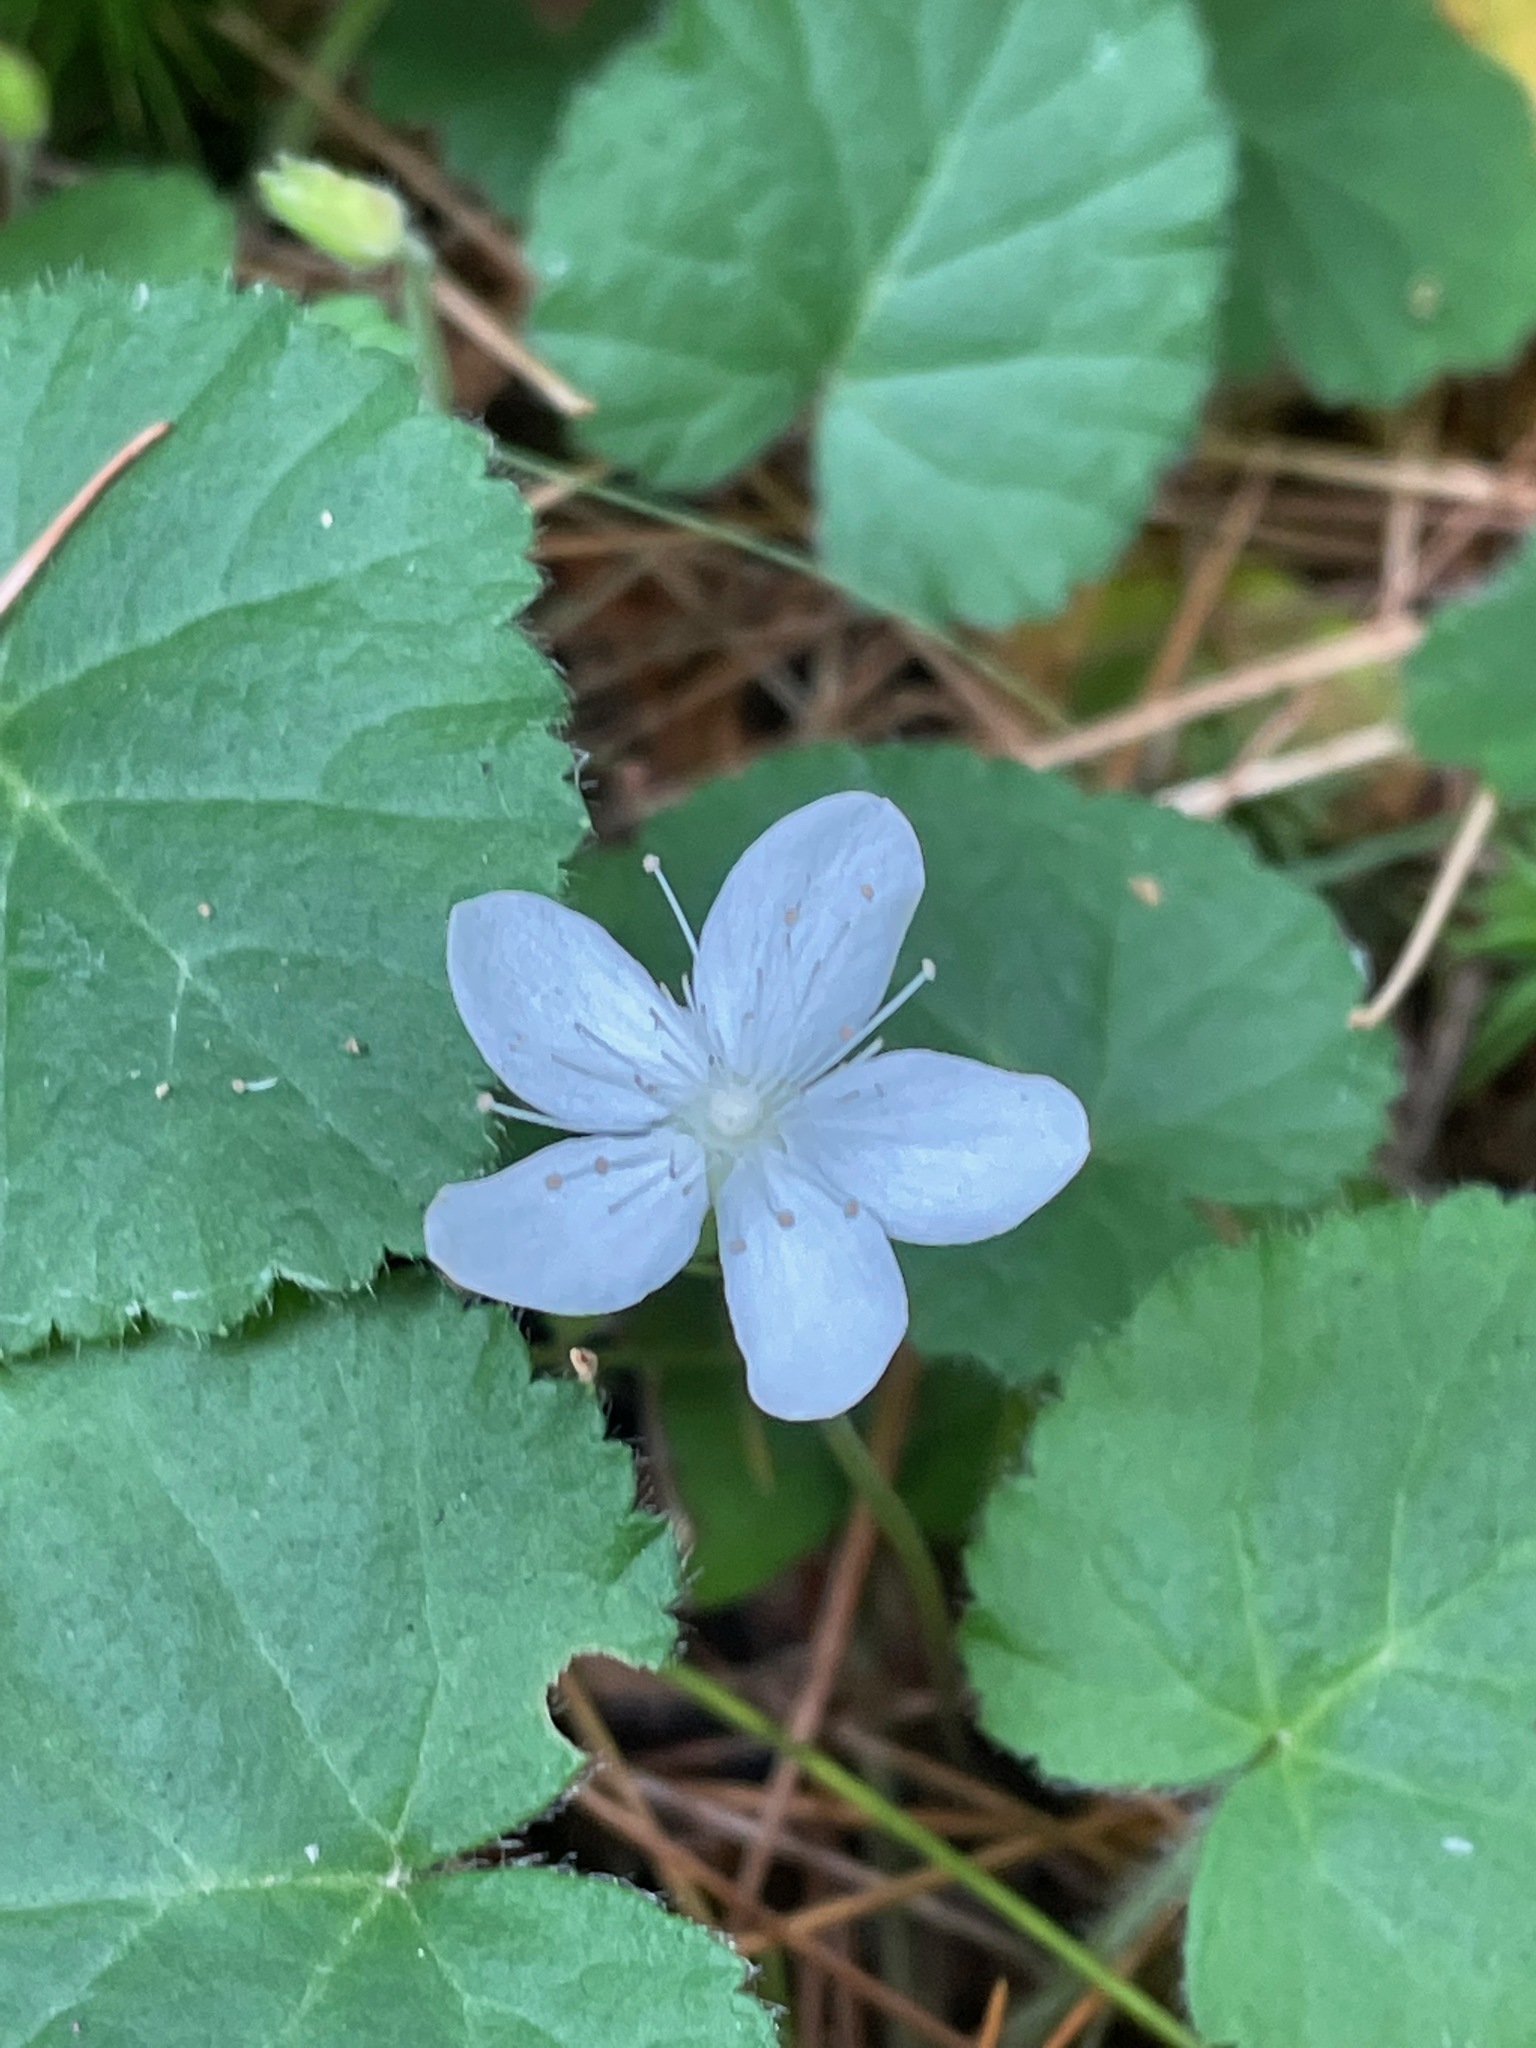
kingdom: Plantae
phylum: Tracheophyta
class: Magnoliopsida
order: Rosales
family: Rosaceae
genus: Dalibarda
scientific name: Dalibarda repens
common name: Dewdrop
